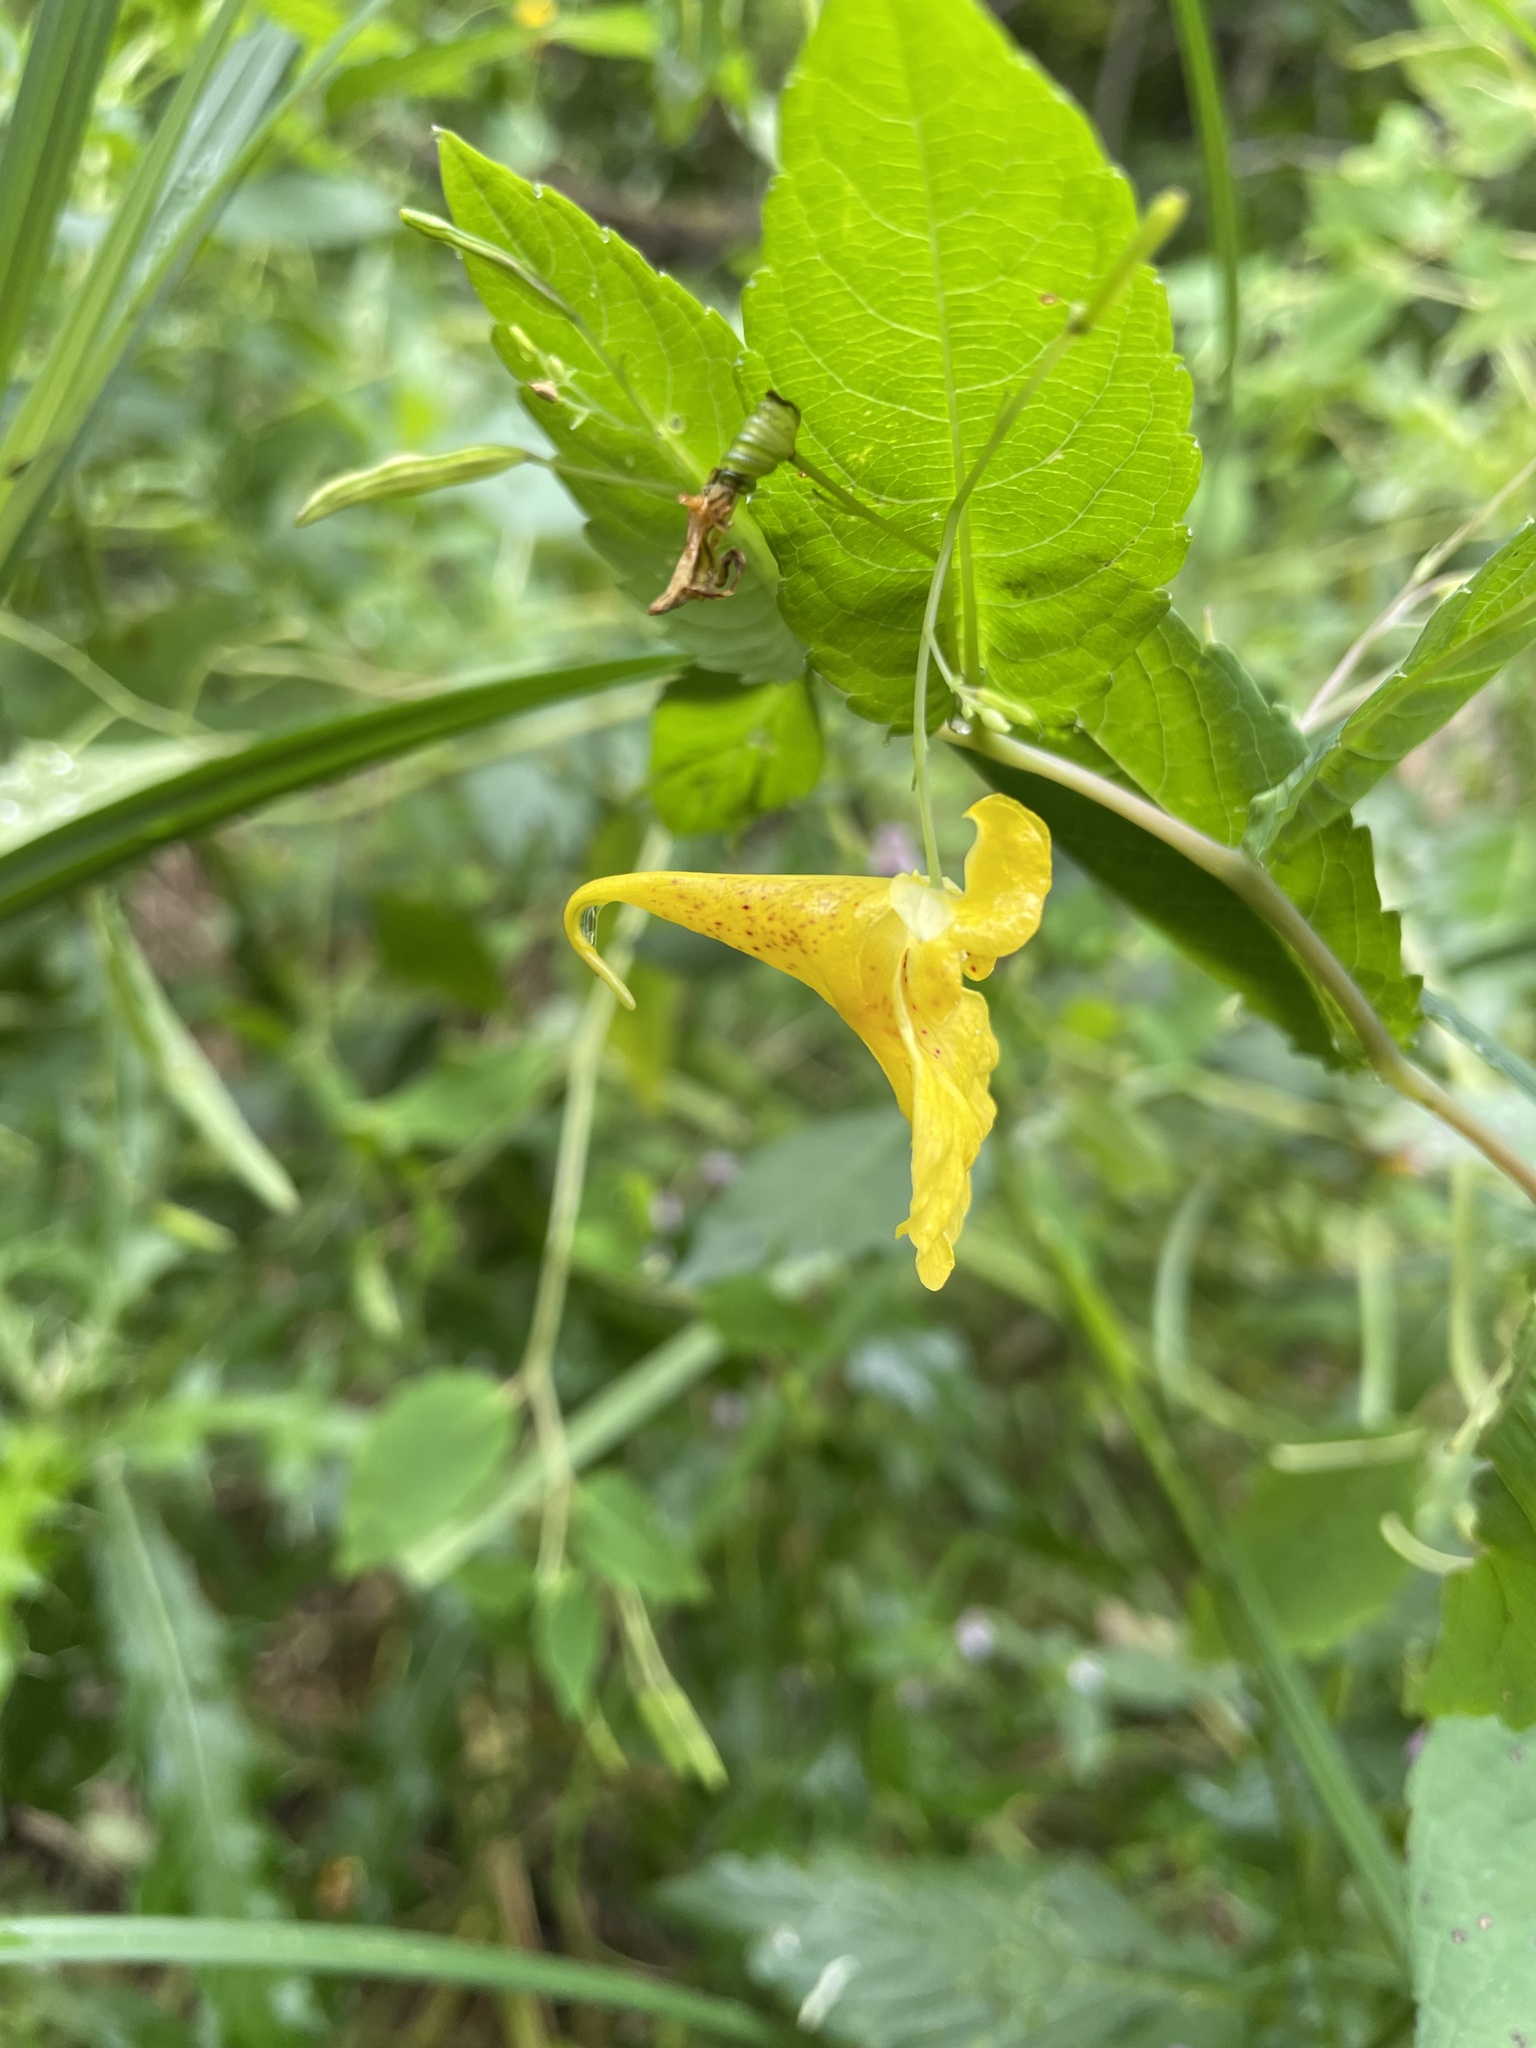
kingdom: Plantae
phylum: Tracheophyta
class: Magnoliopsida
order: Ericales
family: Balsaminaceae
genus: Impatiens
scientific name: Impatiens noli-tangere
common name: Touch-me-not balsam
